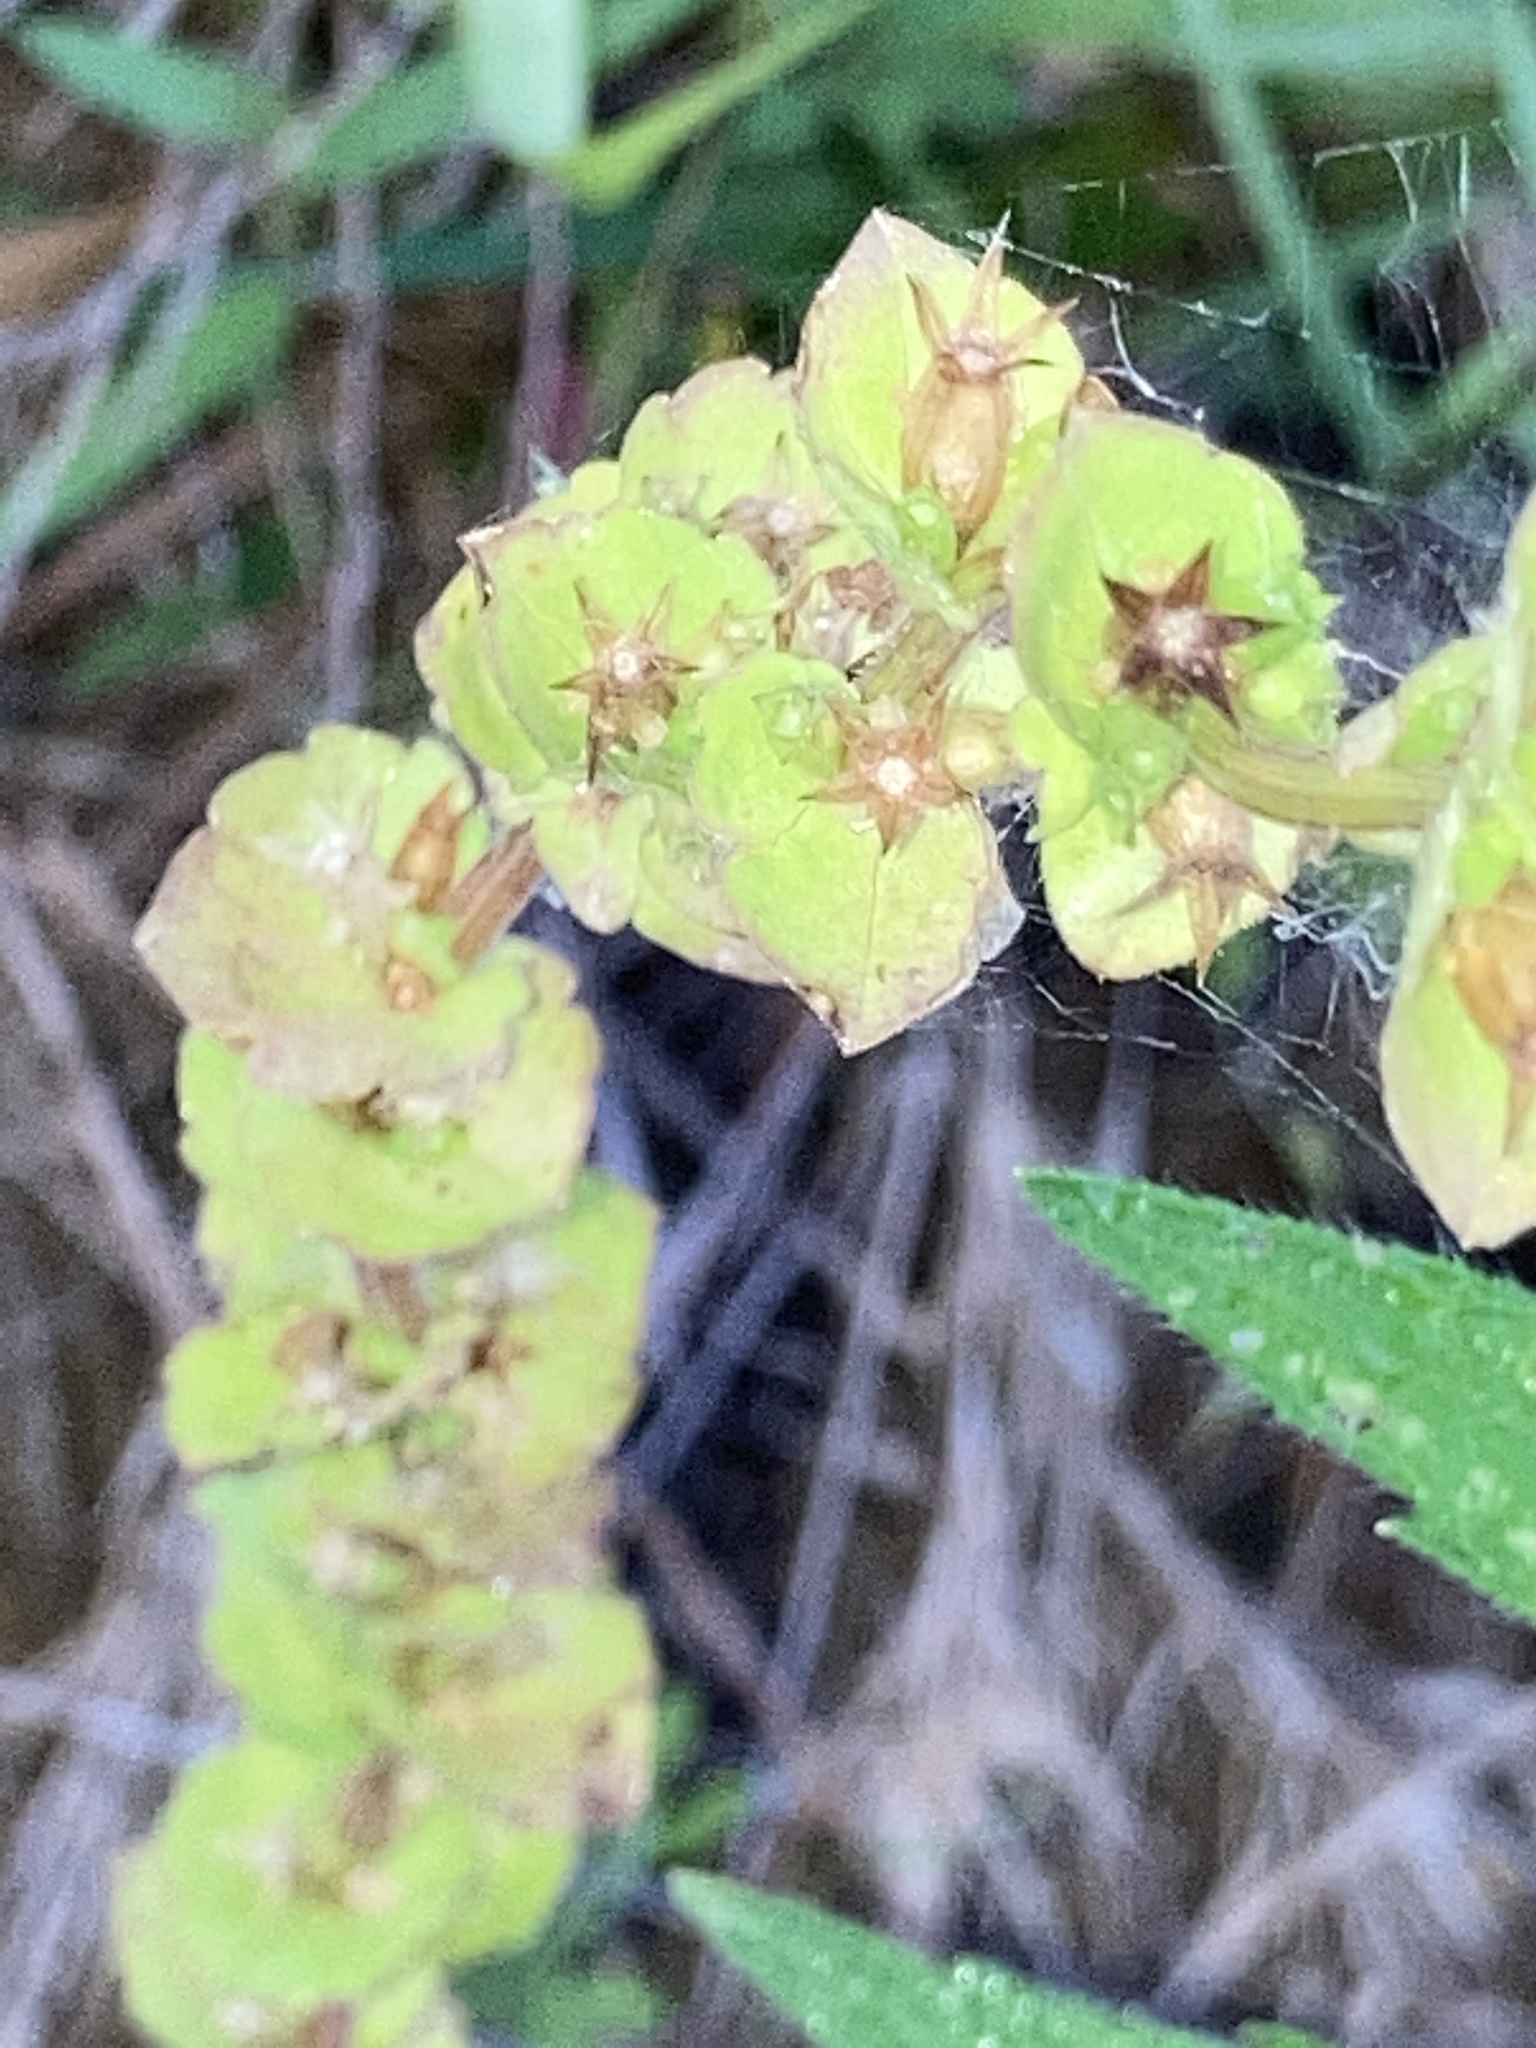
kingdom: Plantae
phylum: Tracheophyta
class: Magnoliopsida
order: Asterales
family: Campanulaceae
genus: Triodanis
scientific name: Triodanis perfoliata
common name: Clasping venus' looking-glass
